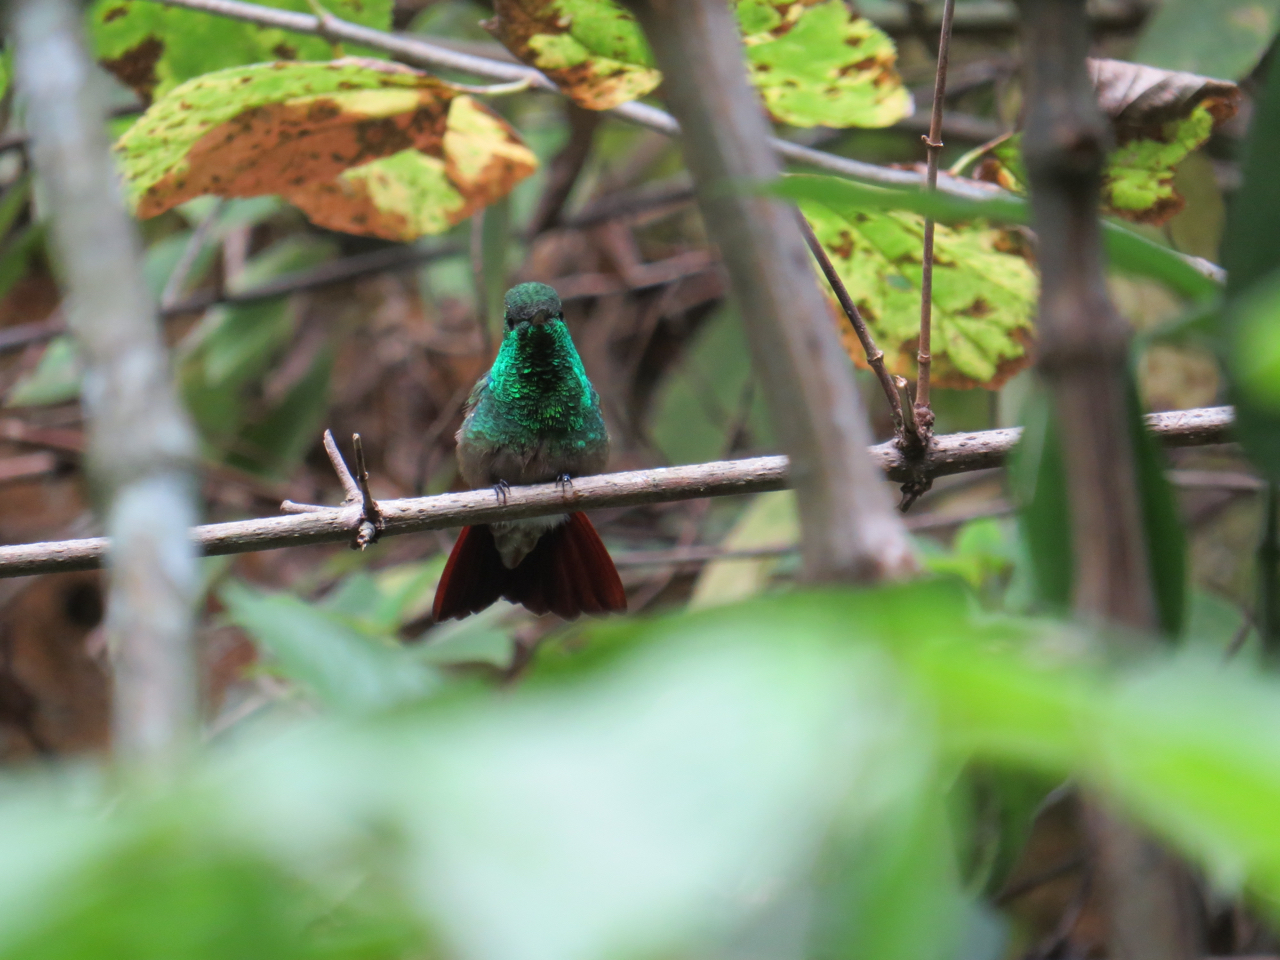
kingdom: Animalia
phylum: Chordata
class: Aves
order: Apodiformes
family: Trochilidae
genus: Saucerottia
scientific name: Saucerottia beryllina
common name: Berylline hummingbird
